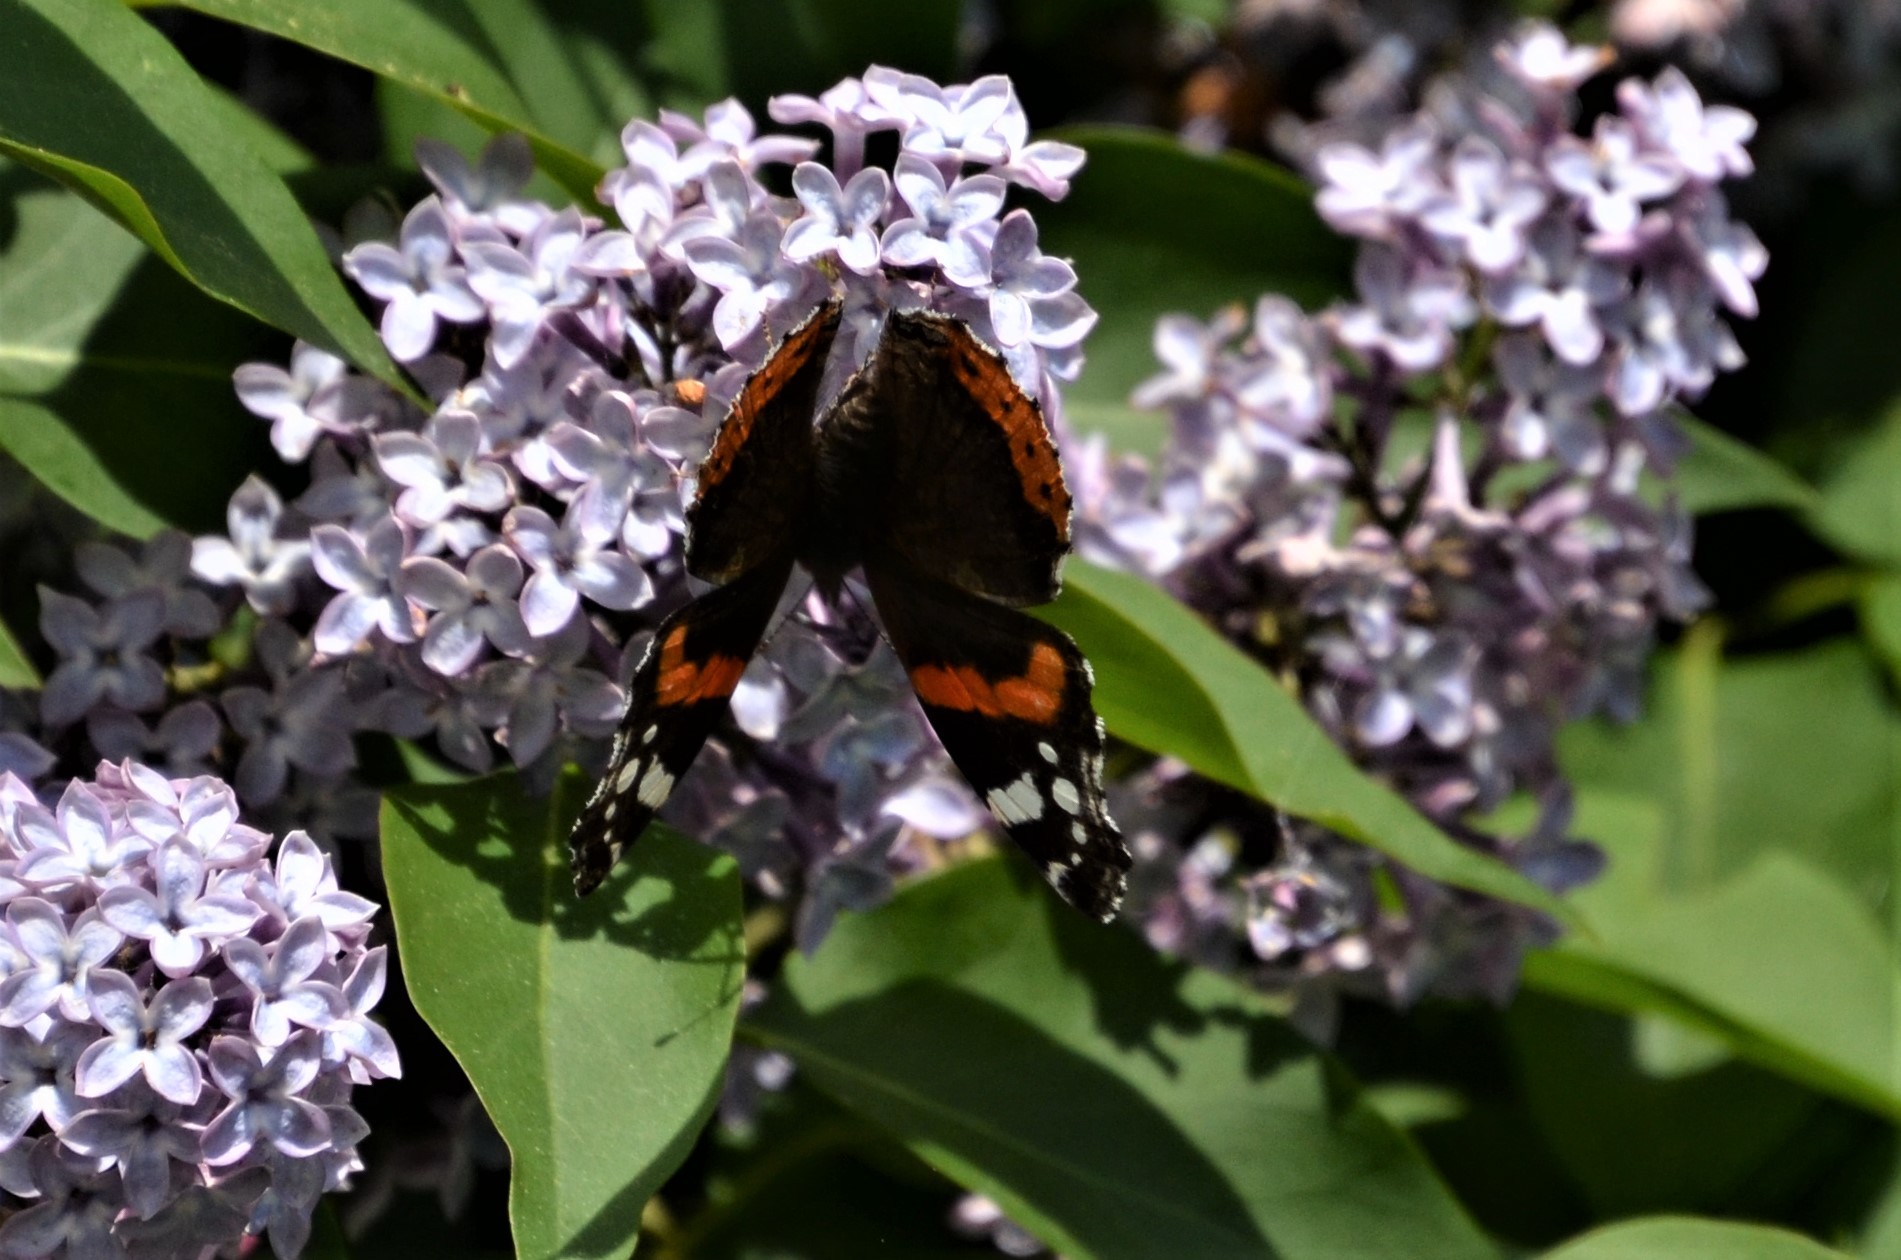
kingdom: Animalia
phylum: Arthropoda
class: Insecta
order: Lepidoptera
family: Nymphalidae
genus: Vanessa
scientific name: Vanessa atalanta
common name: Red admiral
